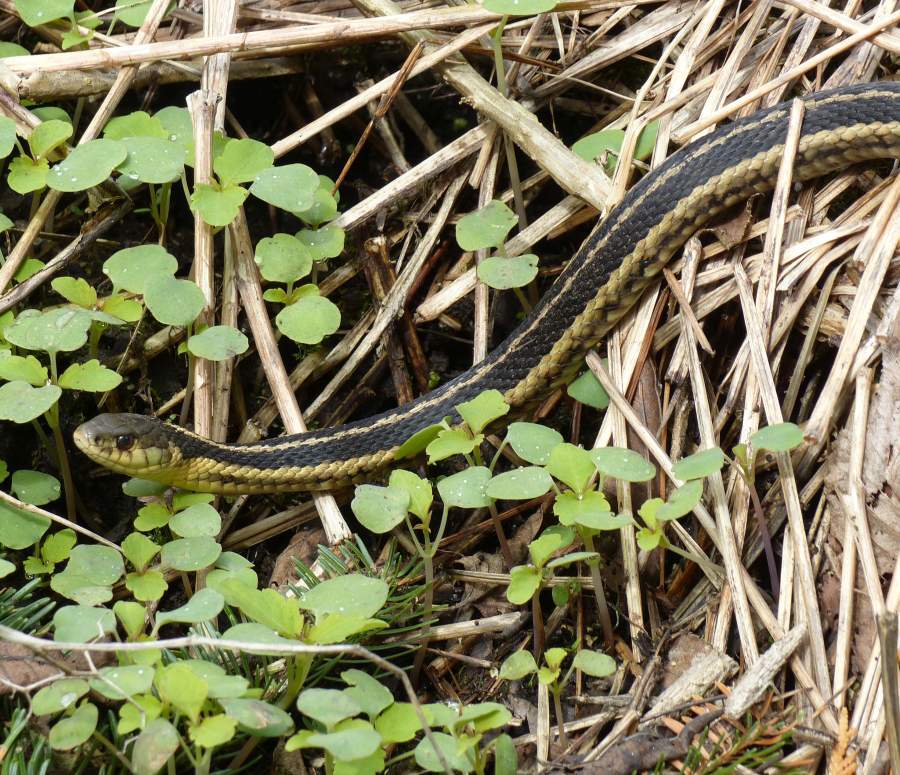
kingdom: Animalia
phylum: Chordata
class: Squamata
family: Colubridae
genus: Thamnophis
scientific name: Thamnophis sirtalis
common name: Common garter snake
